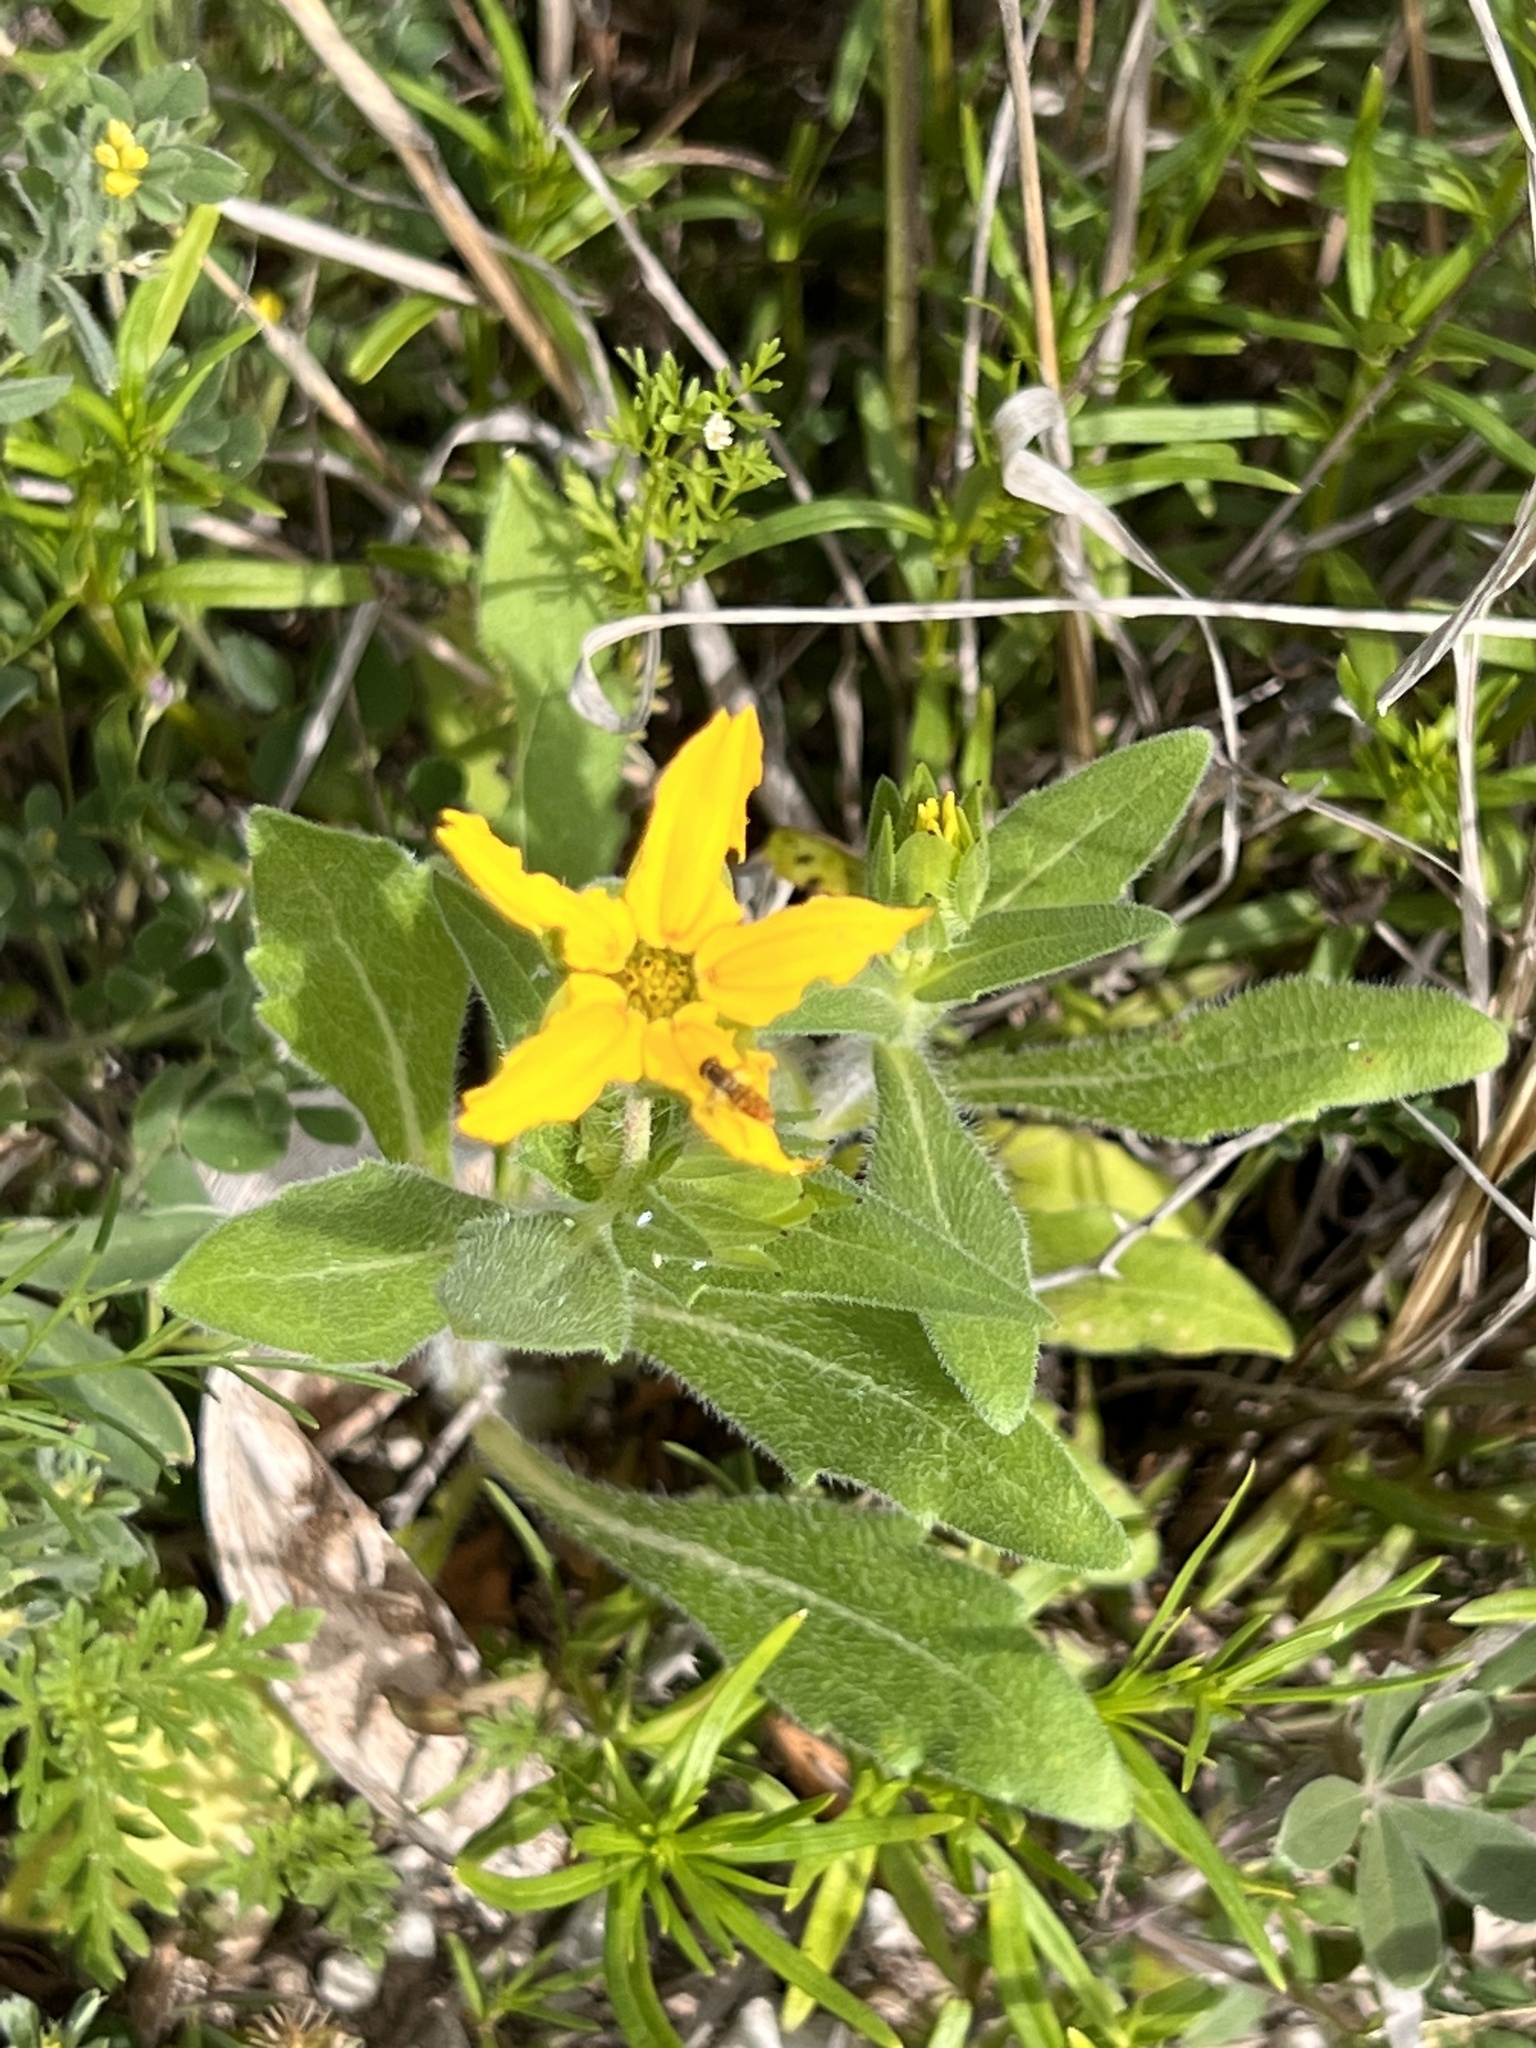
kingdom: Plantae
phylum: Tracheophyta
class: Magnoliopsida
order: Asterales
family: Asteraceae
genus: Lindheimera
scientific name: Lindheimera texana
